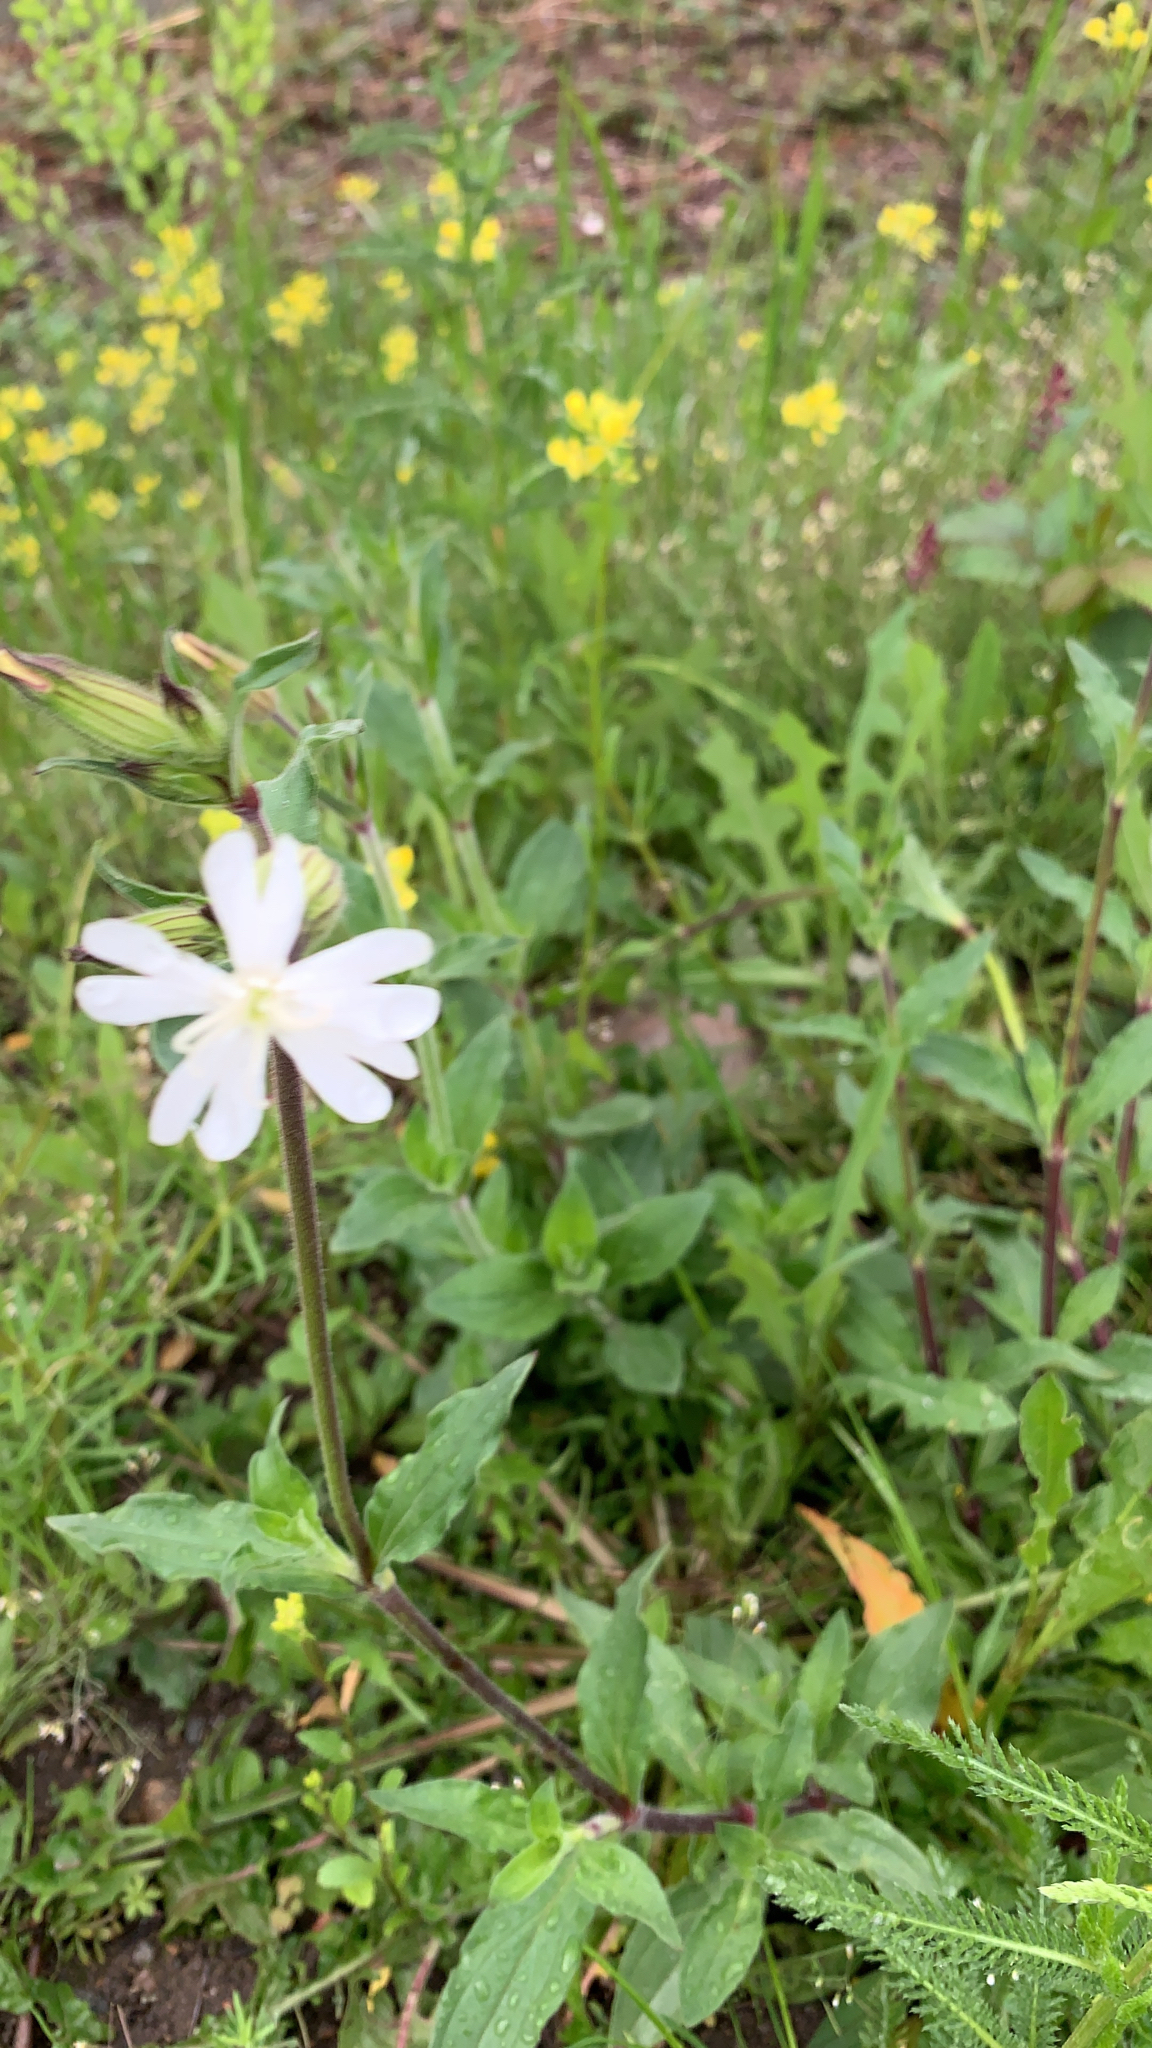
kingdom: Plantae
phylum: Tracheophyta
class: Magnoliopsida
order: Caryophyllales
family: Caryophyllaceae
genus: Silene
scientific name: Silene latifolia
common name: White campion
